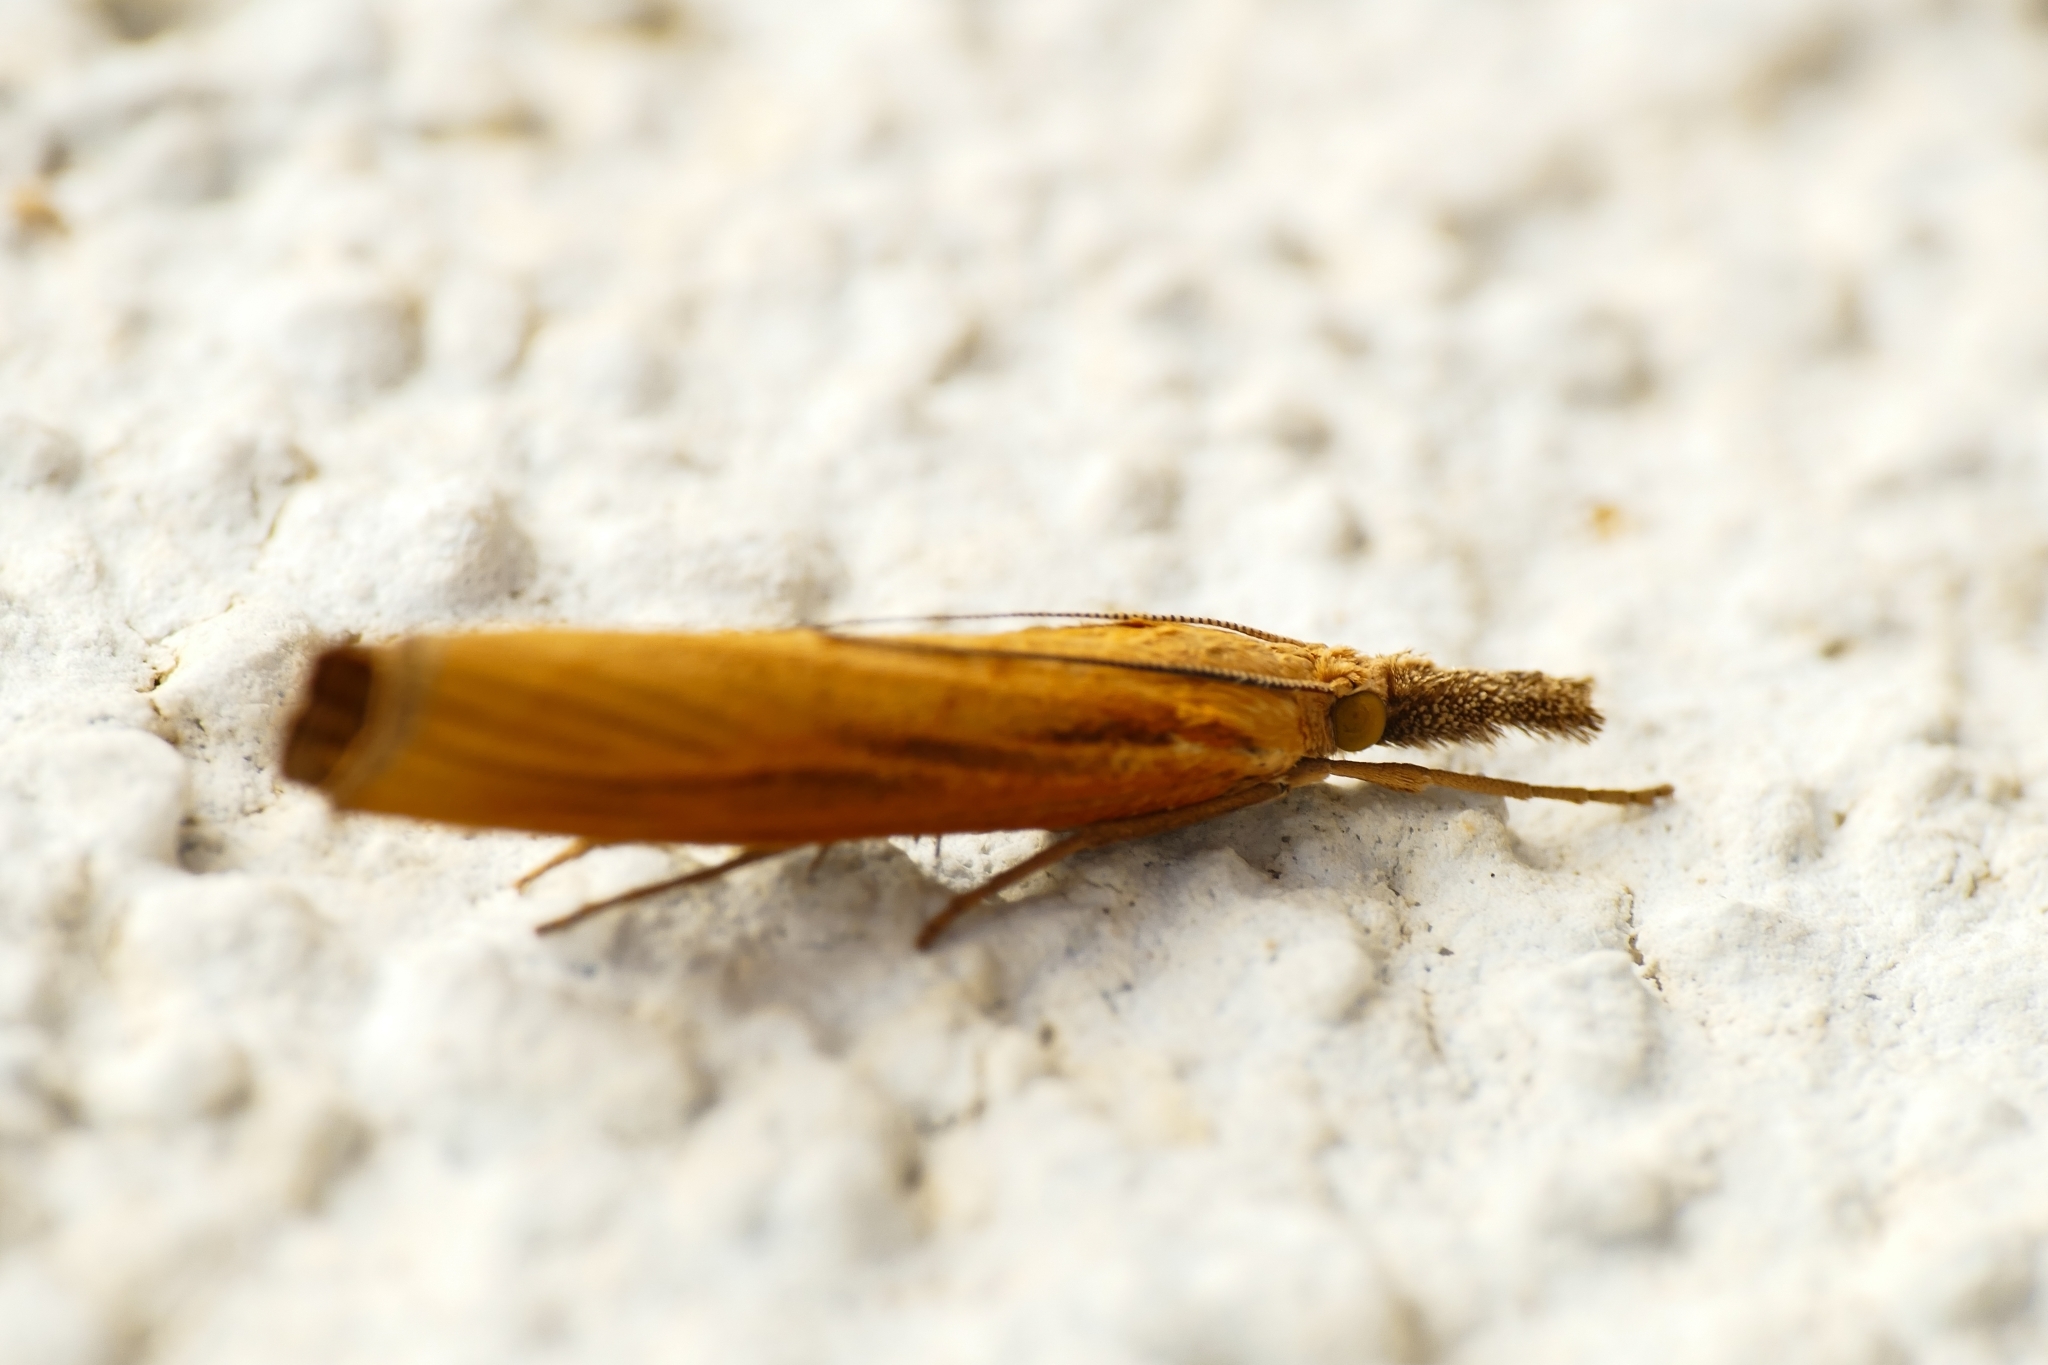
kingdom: Animalia
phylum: Arthropoda
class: Insecta
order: Lepidoptera
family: Crambidae
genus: Agriphila
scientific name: Agriphila tristellus
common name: Common grass-veneer
